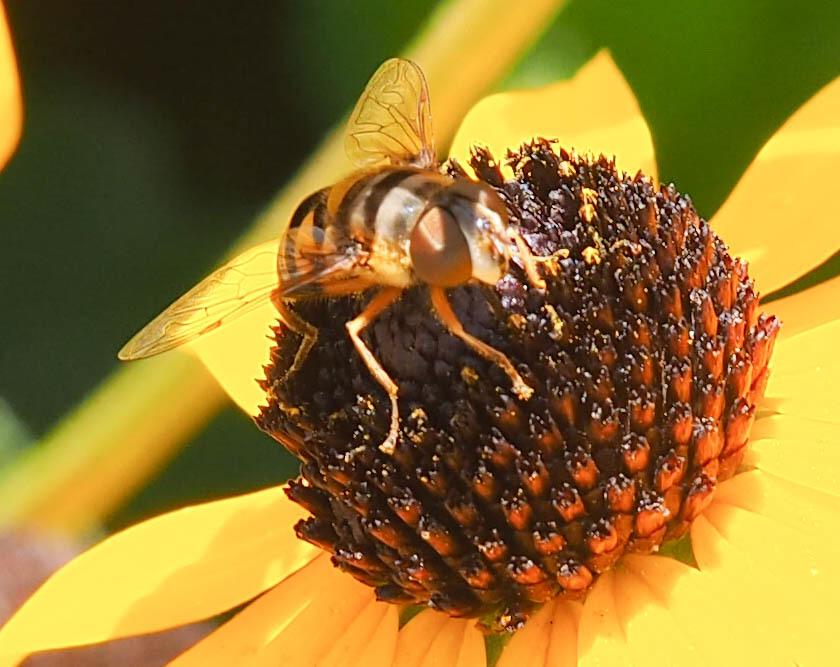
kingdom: Animalia
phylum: Arthropoda
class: Insecta
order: Diptera
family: Syrphidae
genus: Eristalis
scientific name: Eristalis transversa
